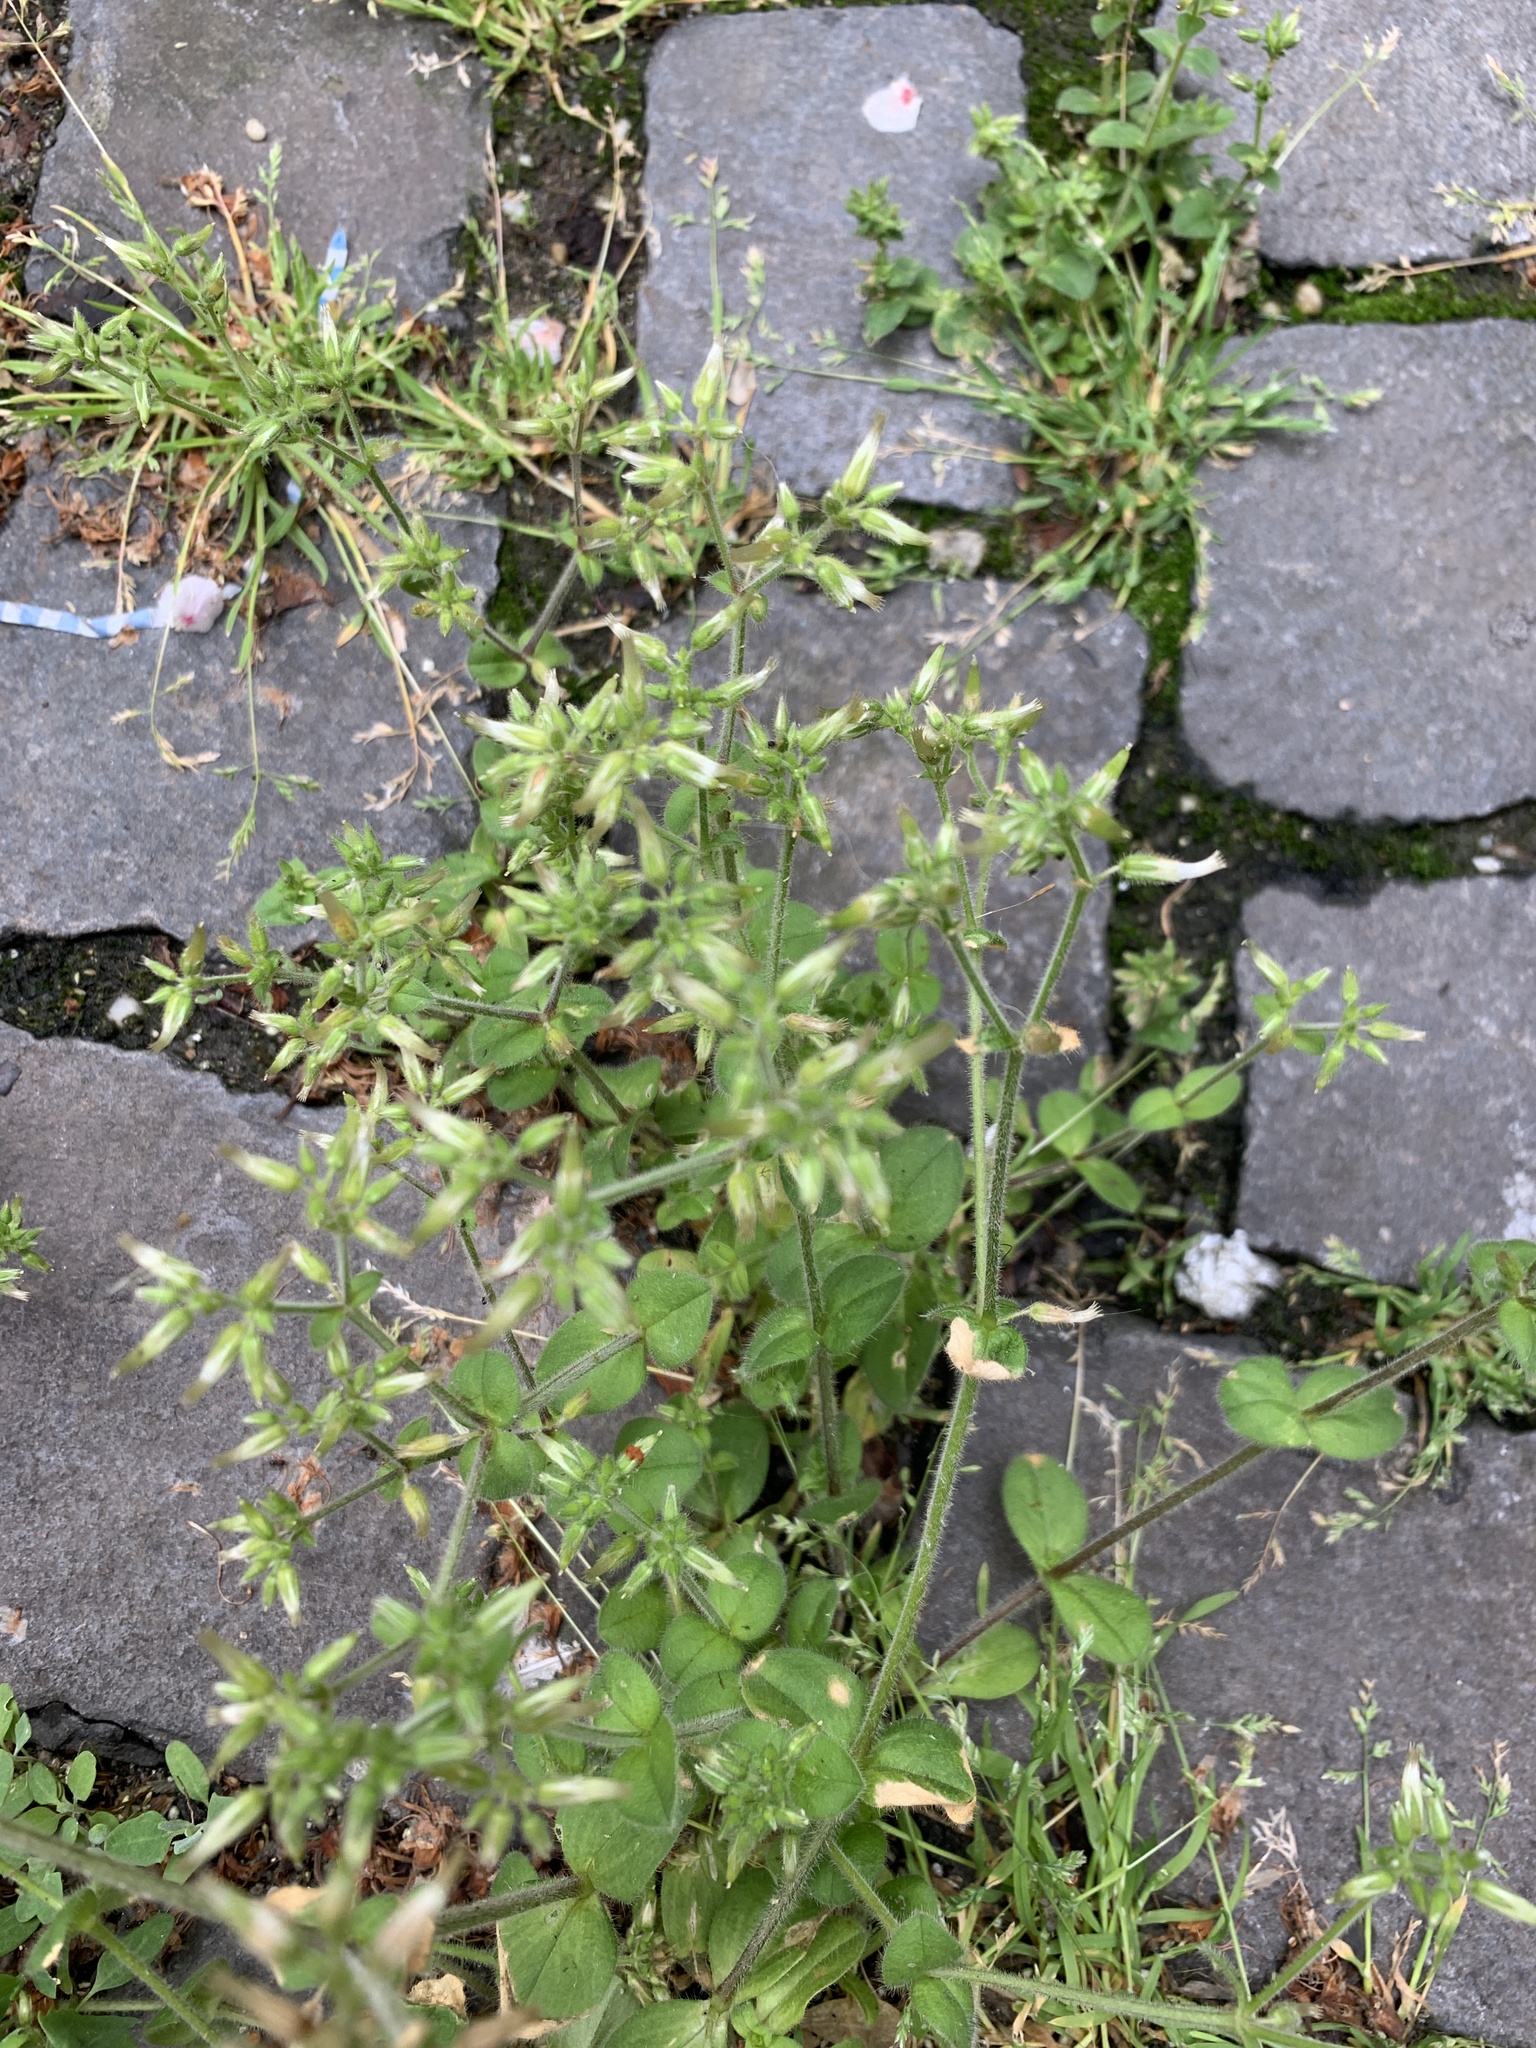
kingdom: Plantae
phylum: Tracheophyta
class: Magnoliopsida
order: Caryophyllales
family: Caryophyllaceae
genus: Cerastium
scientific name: Cerastium glomeratum
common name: Sticky chickweed
